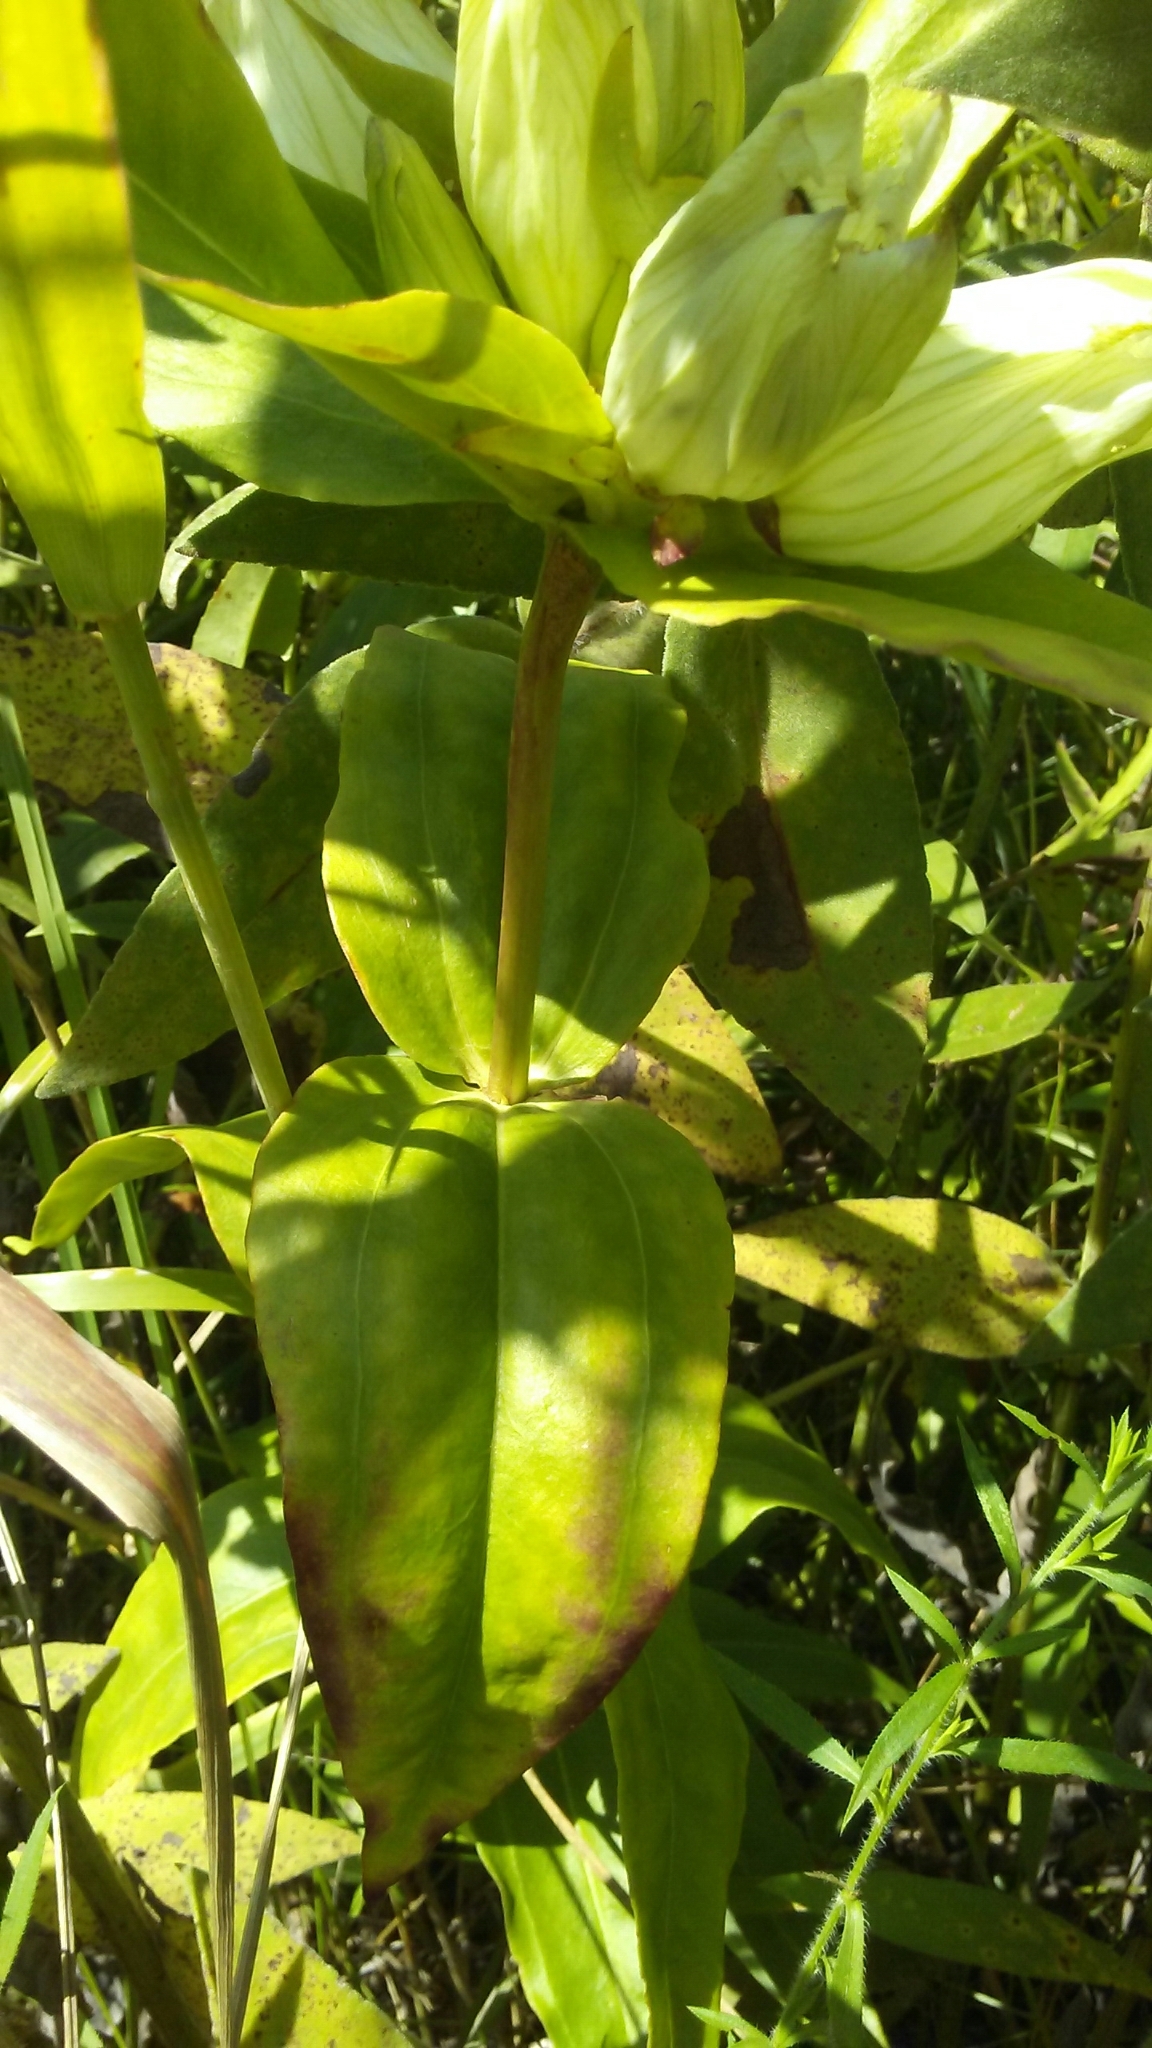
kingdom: Plantae
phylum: Tracheophyta
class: Magnoliopsida
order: Gentianales
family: Gentianaceae
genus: Gentiana
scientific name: Gentiana alba
